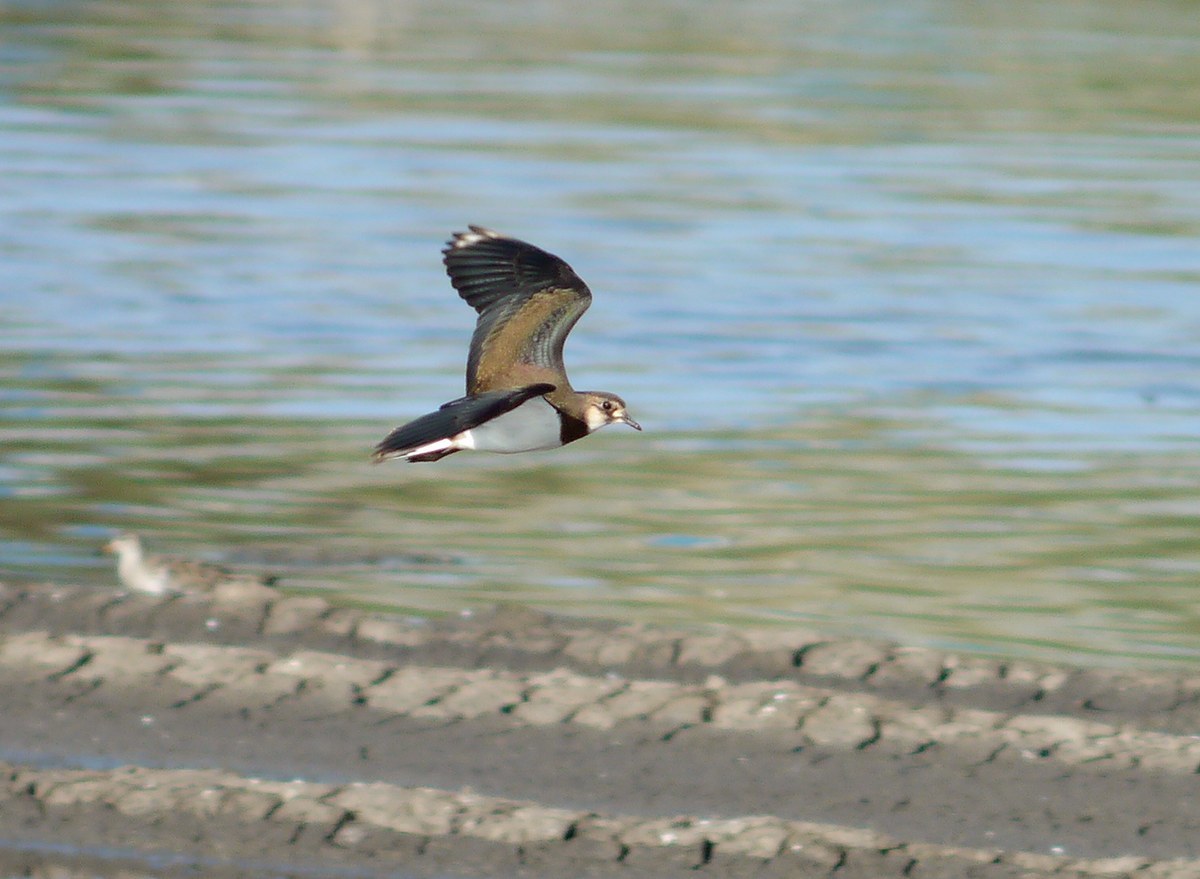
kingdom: Animalia
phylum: Chordata
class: Aves
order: Charadriiformes
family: Charadriidae
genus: Vanellus
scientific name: Vanellus vanellus
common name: Northern lapwing
